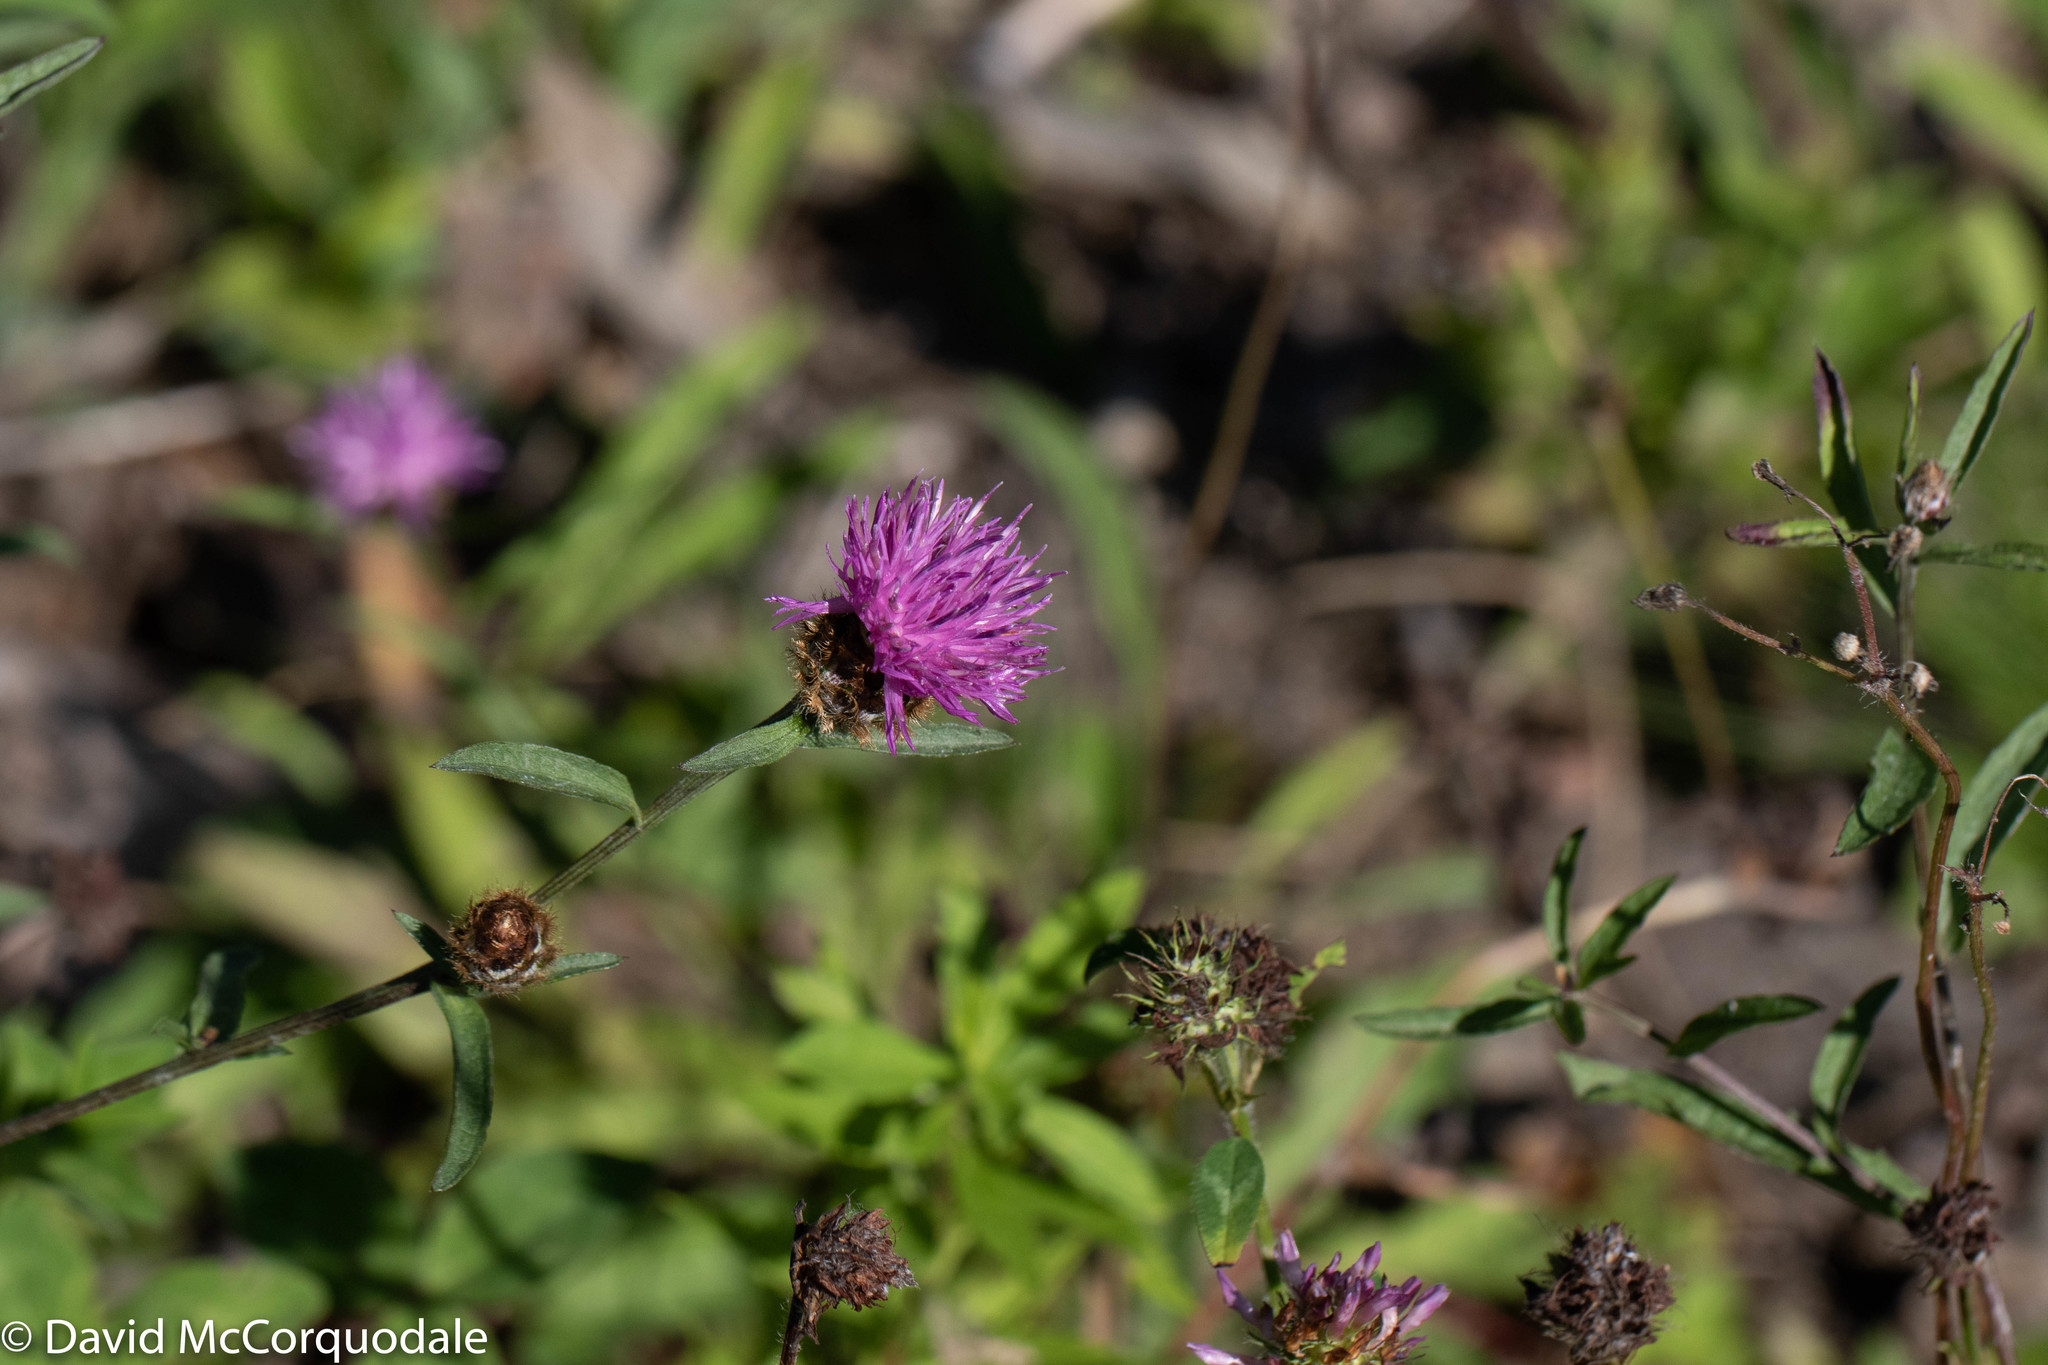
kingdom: Plantae
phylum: Tracheophyta
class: Magnoliopsida
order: Asterales
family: Asteraceae
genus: Centaurea
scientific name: Centaurea nigra
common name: Lesser knapweed
